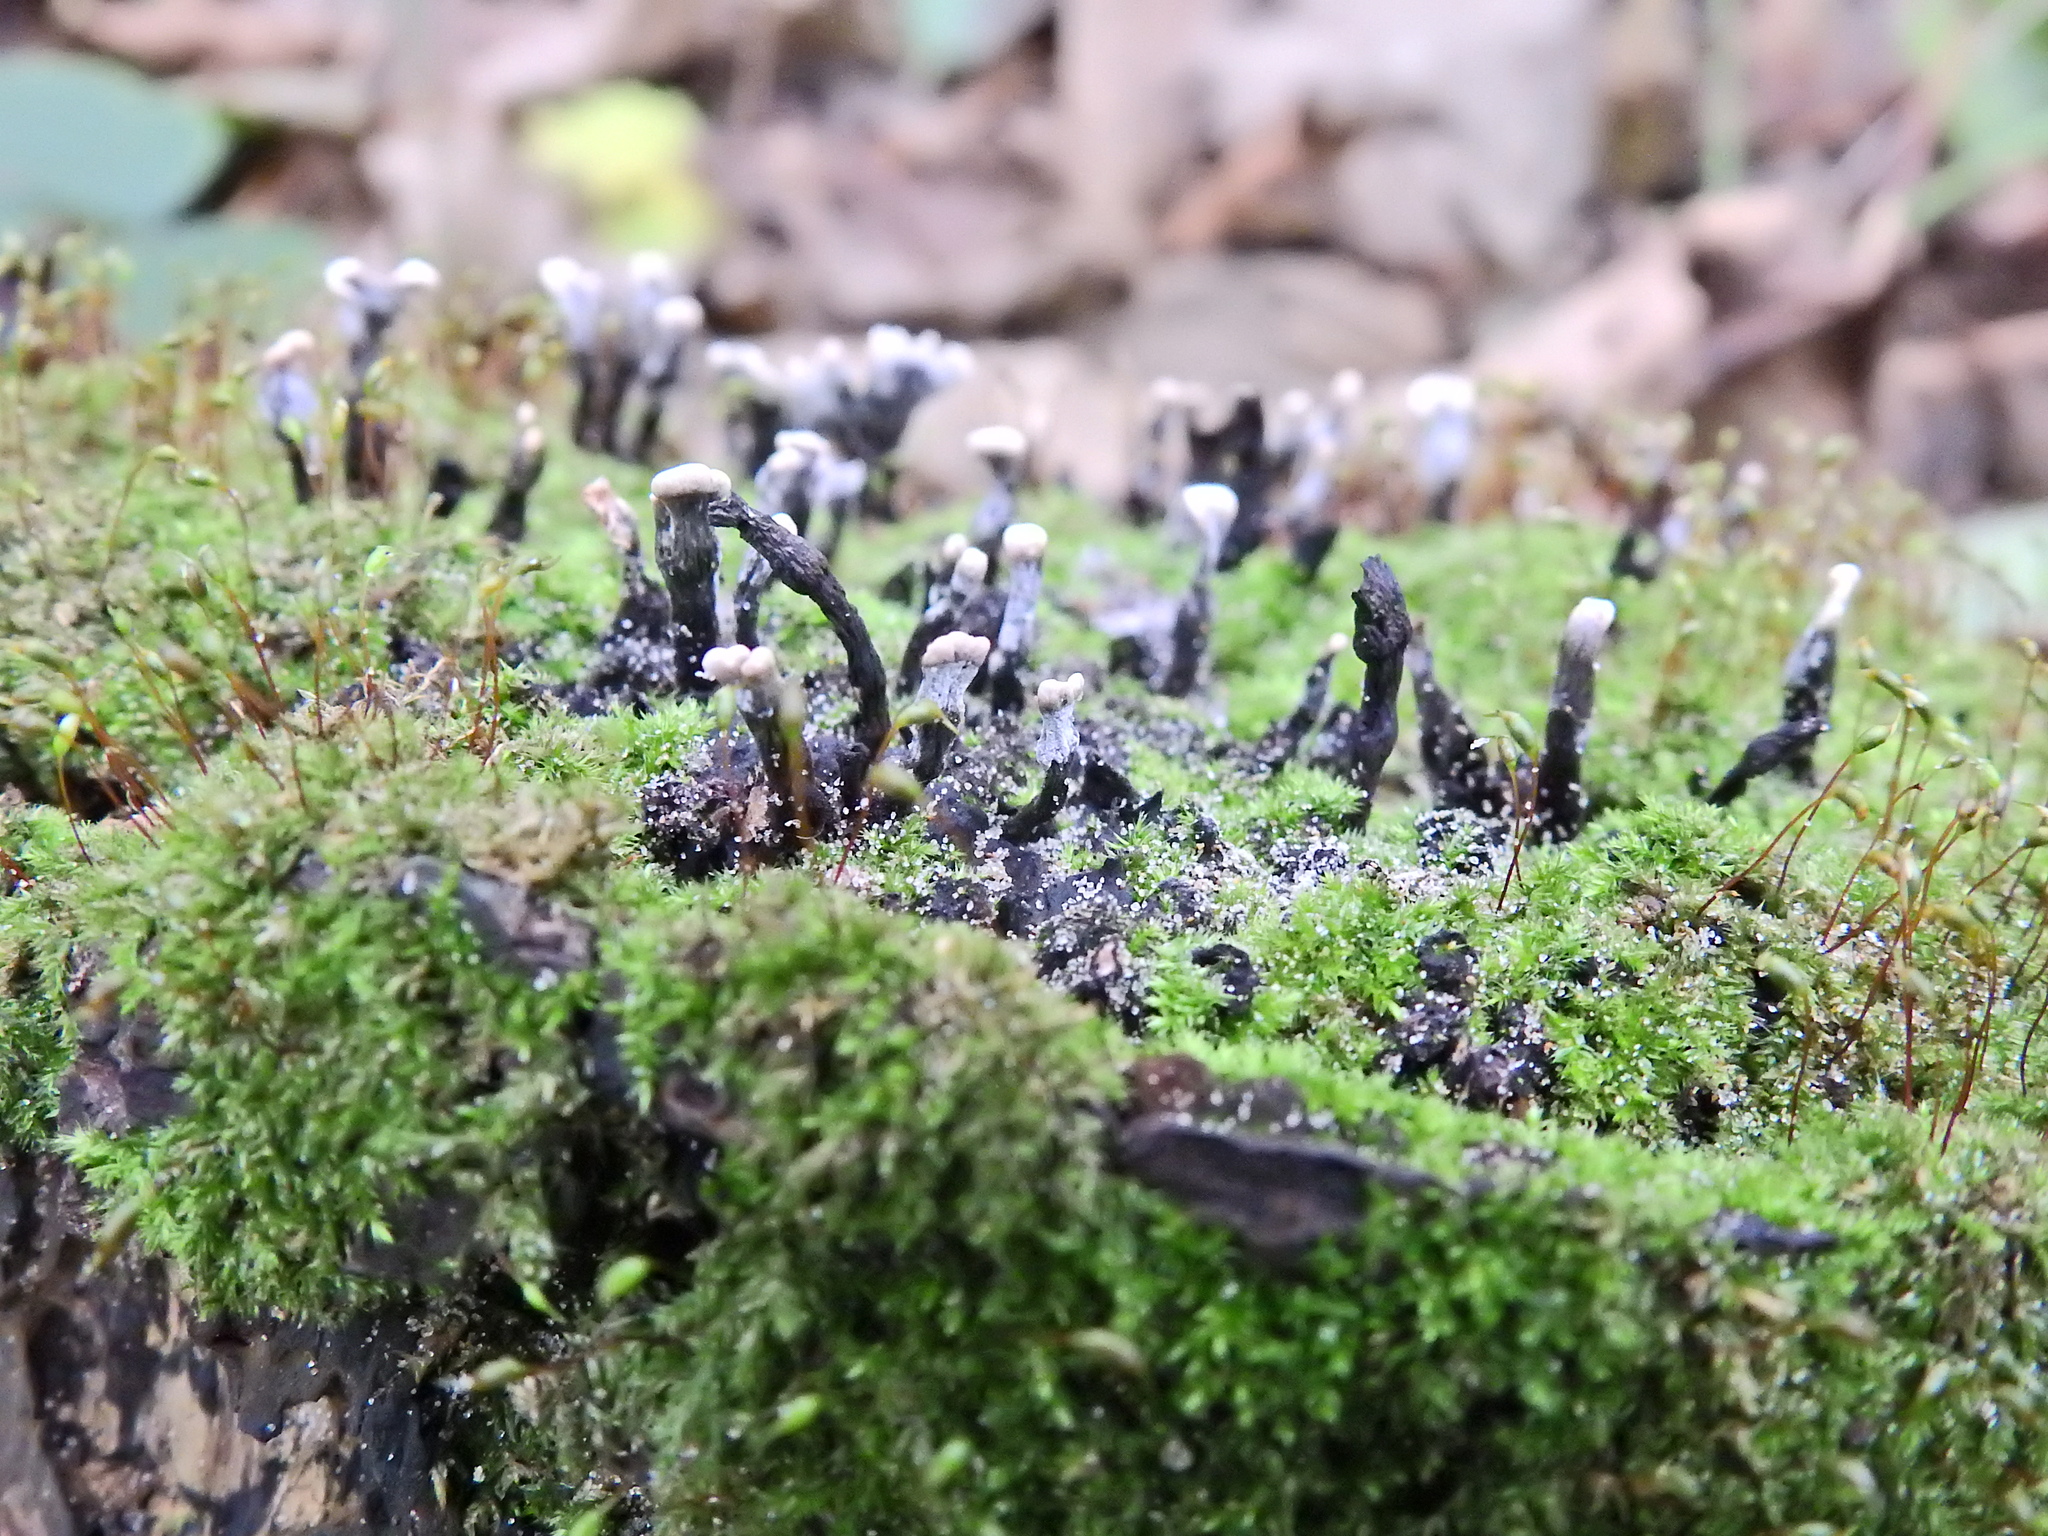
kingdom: Fungi
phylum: Ascomycota
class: Sordariomycetes
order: Xylariales
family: Xylariaceae
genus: Xylaria
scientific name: Xylaria hypoxylon
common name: Candle-snuff fungus
